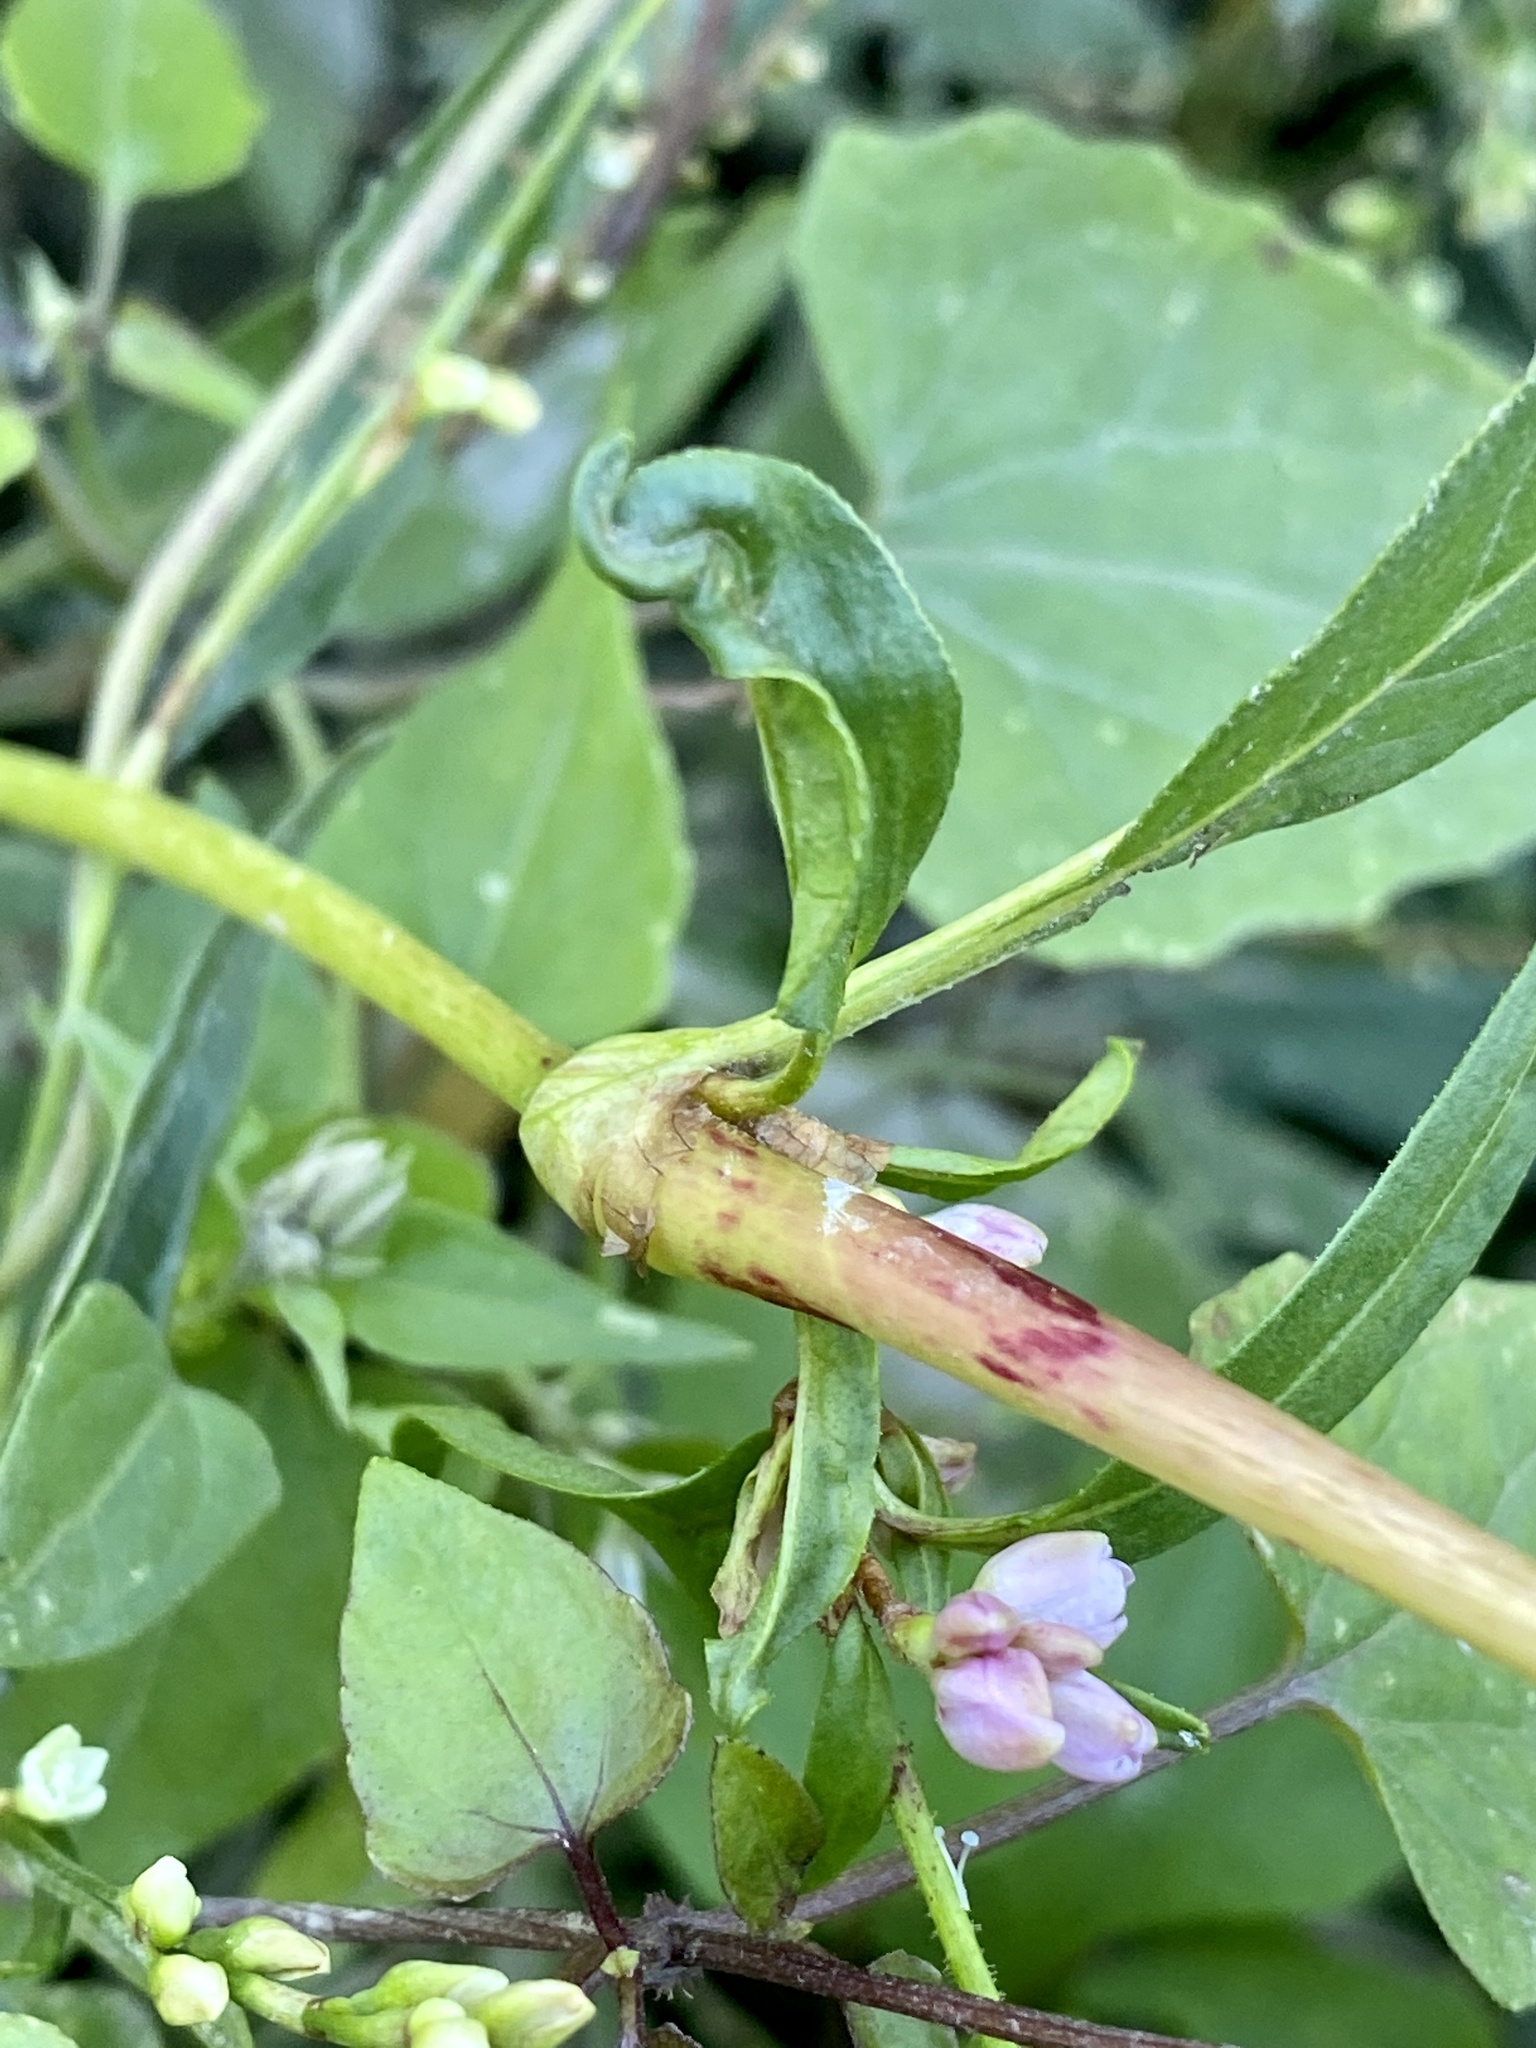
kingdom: Plantae
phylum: Tracheophyta
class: Magnoliopsida
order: Caryophyllales
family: Polygonaceae
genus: Persicaria
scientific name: Persicaria pensylvanica
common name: Pinkweed
